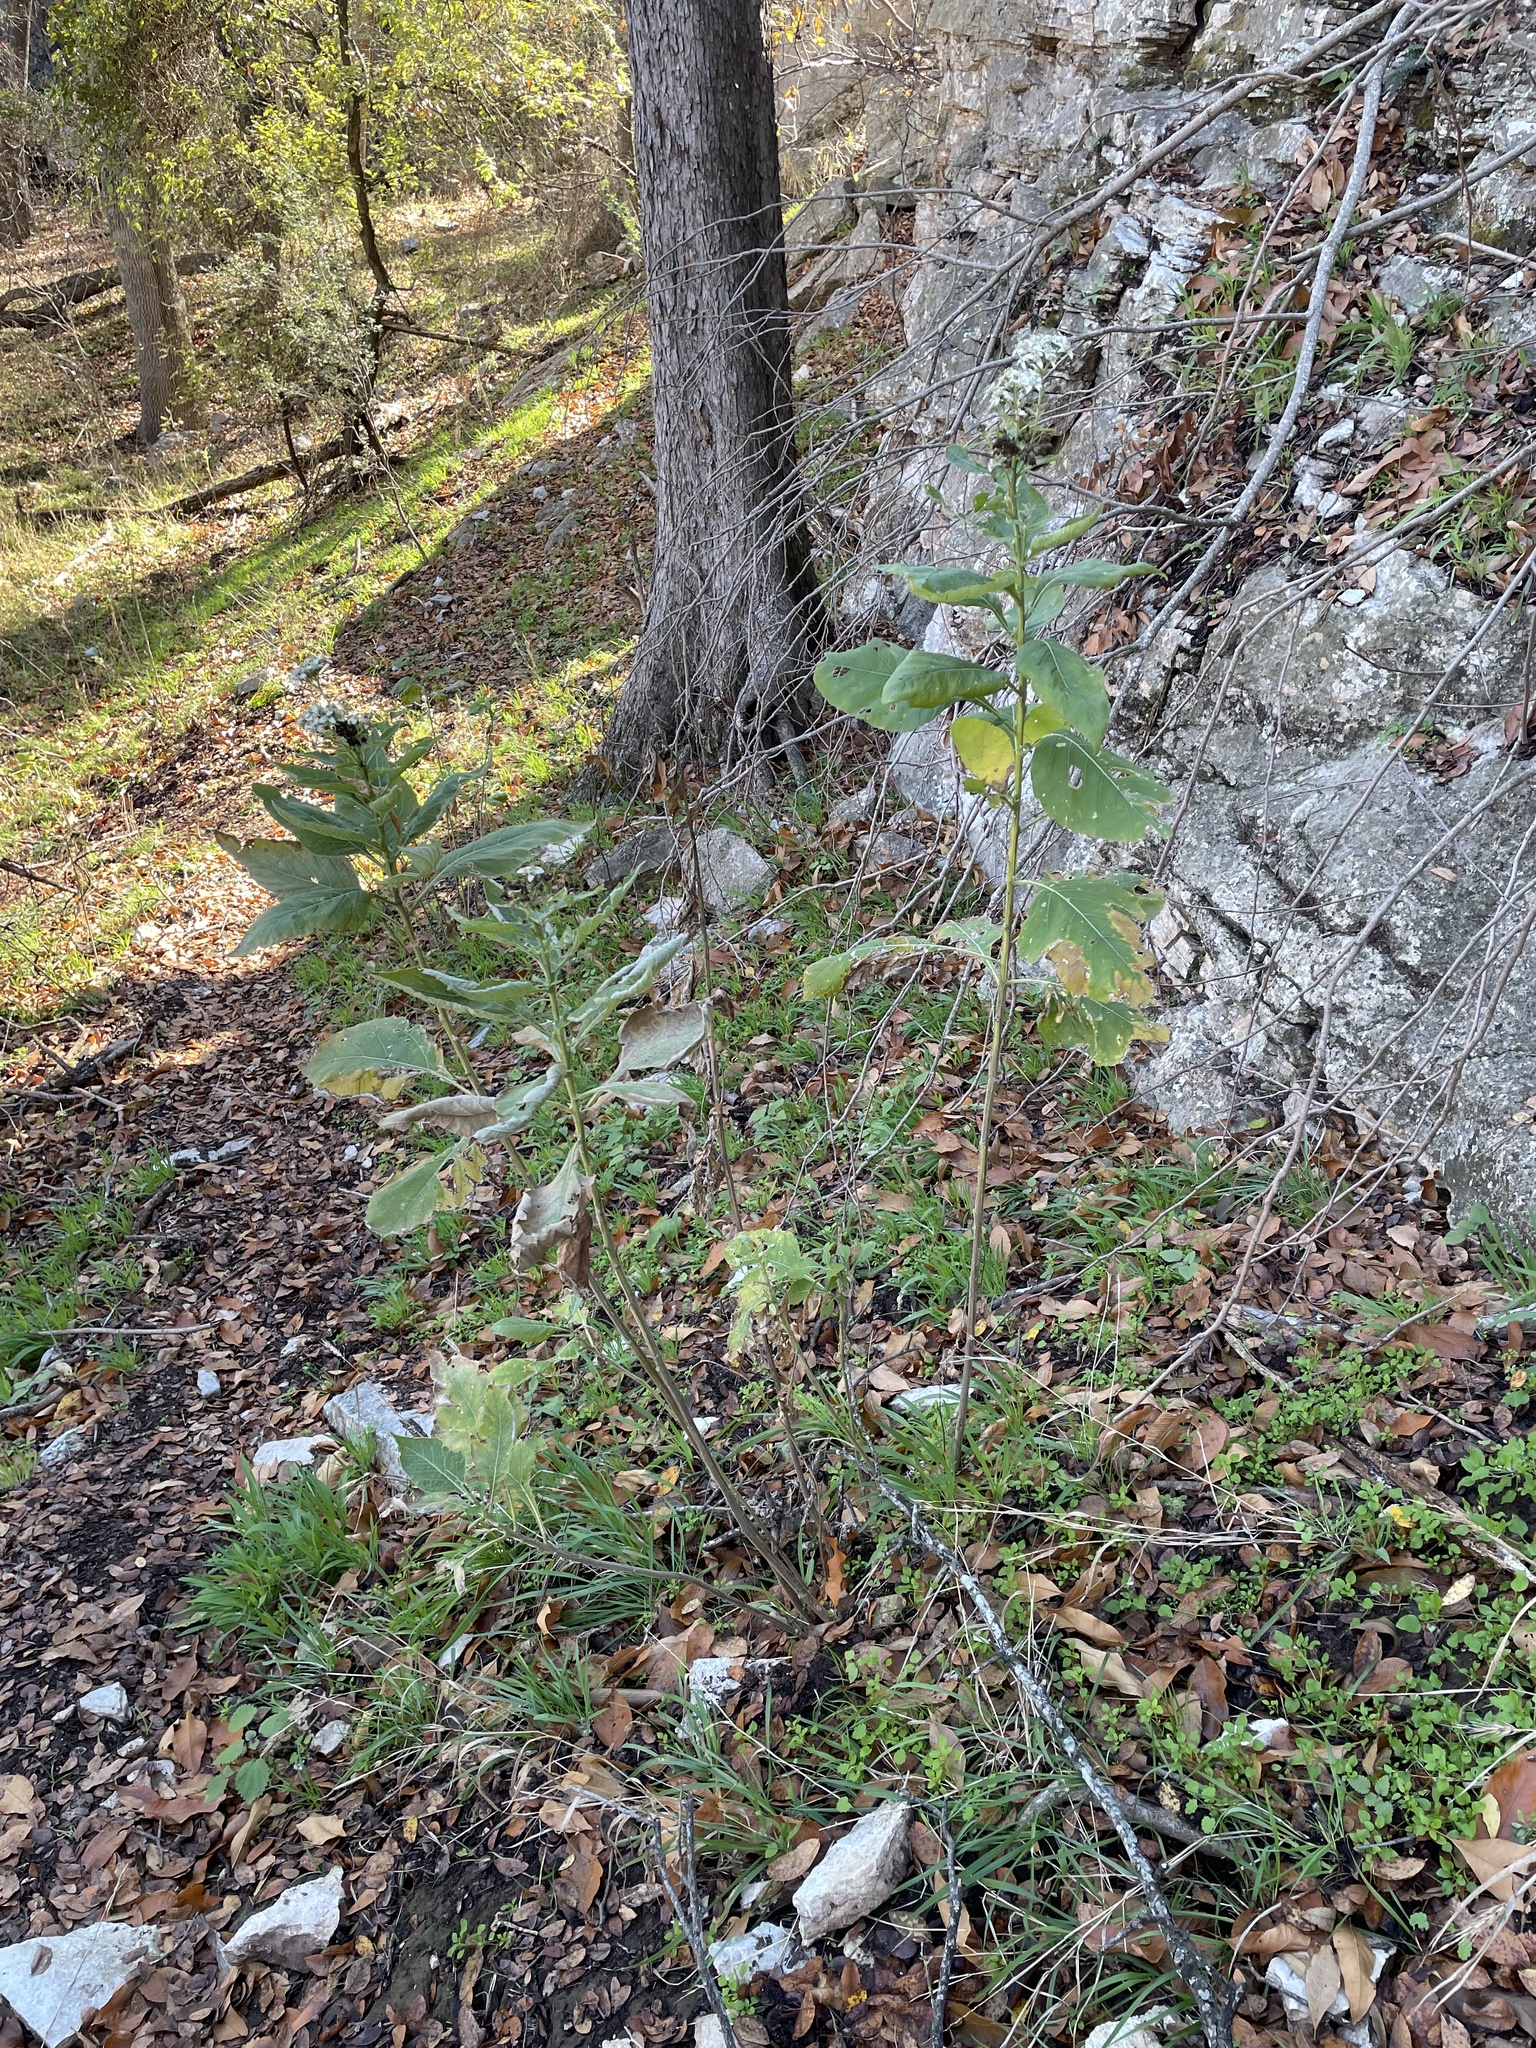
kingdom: Plantae
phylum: Tracheophyta
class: Magnoliopsida
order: Asterales
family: Asteraceae
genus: Verbesina
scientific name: Verbesina virginica
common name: Frostweed
